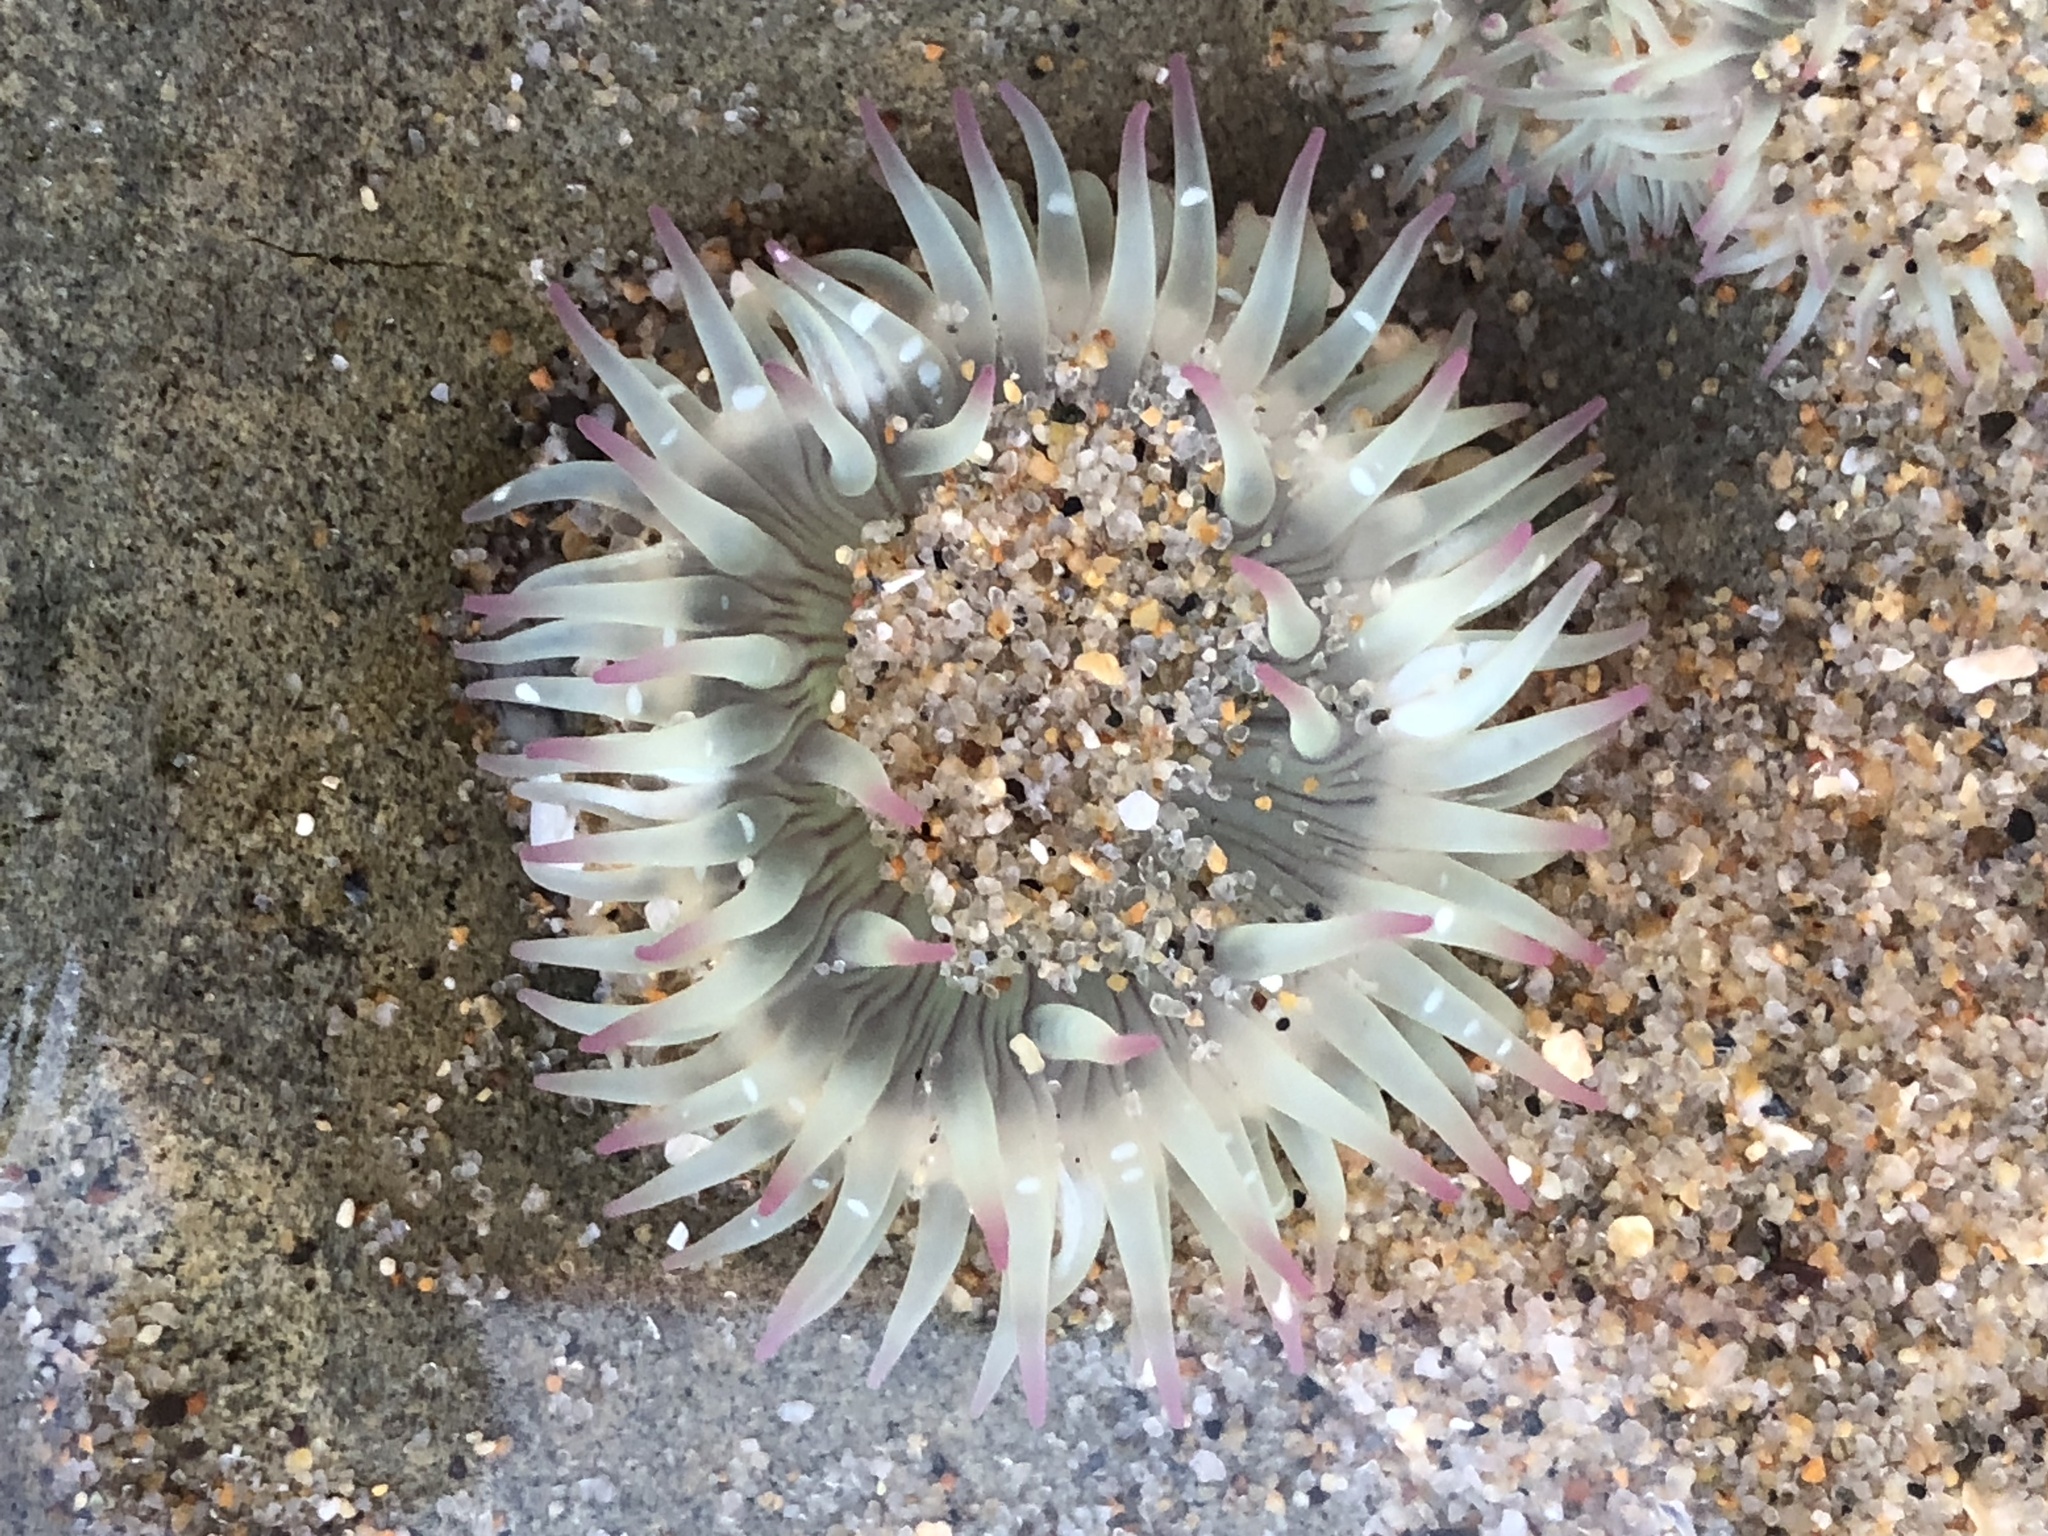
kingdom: Animalia
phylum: Cnidaria
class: Anthozoa
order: Actiniaria
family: Actiniidae
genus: Anthopleura
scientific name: Anthopleura elegantissima
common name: Clonal anemone
